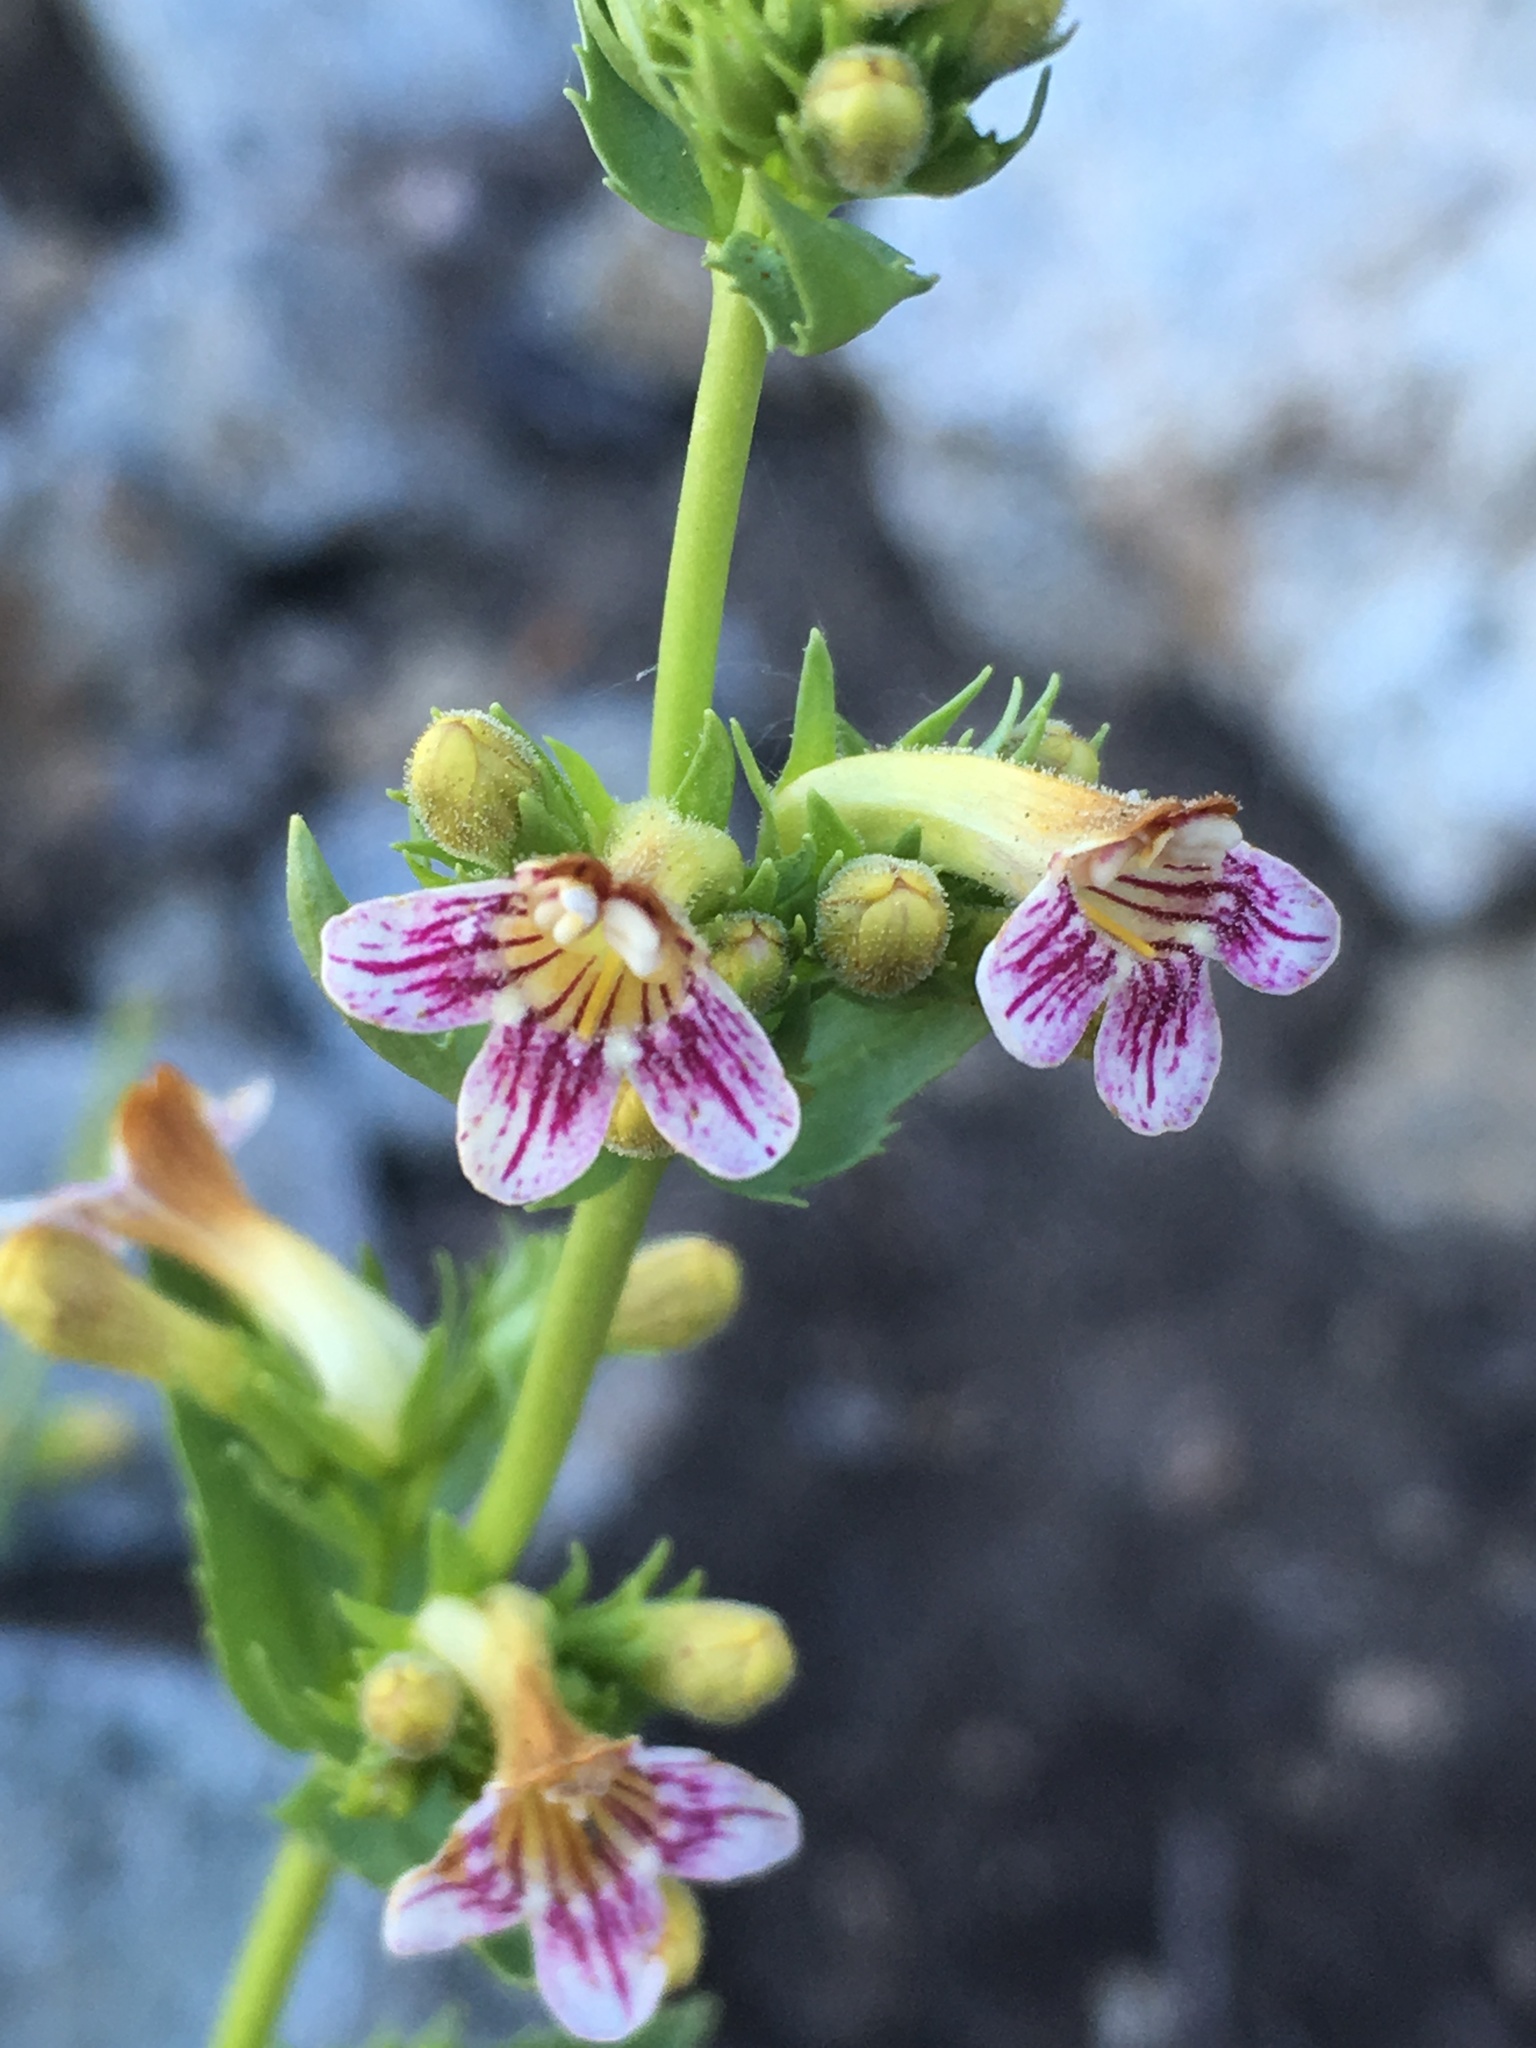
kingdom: Plantae
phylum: Tracheophyta
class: Magnoliopsida
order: Lamiales
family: Plantaginaceae
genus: Penstemon
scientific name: Penstemon deustus
